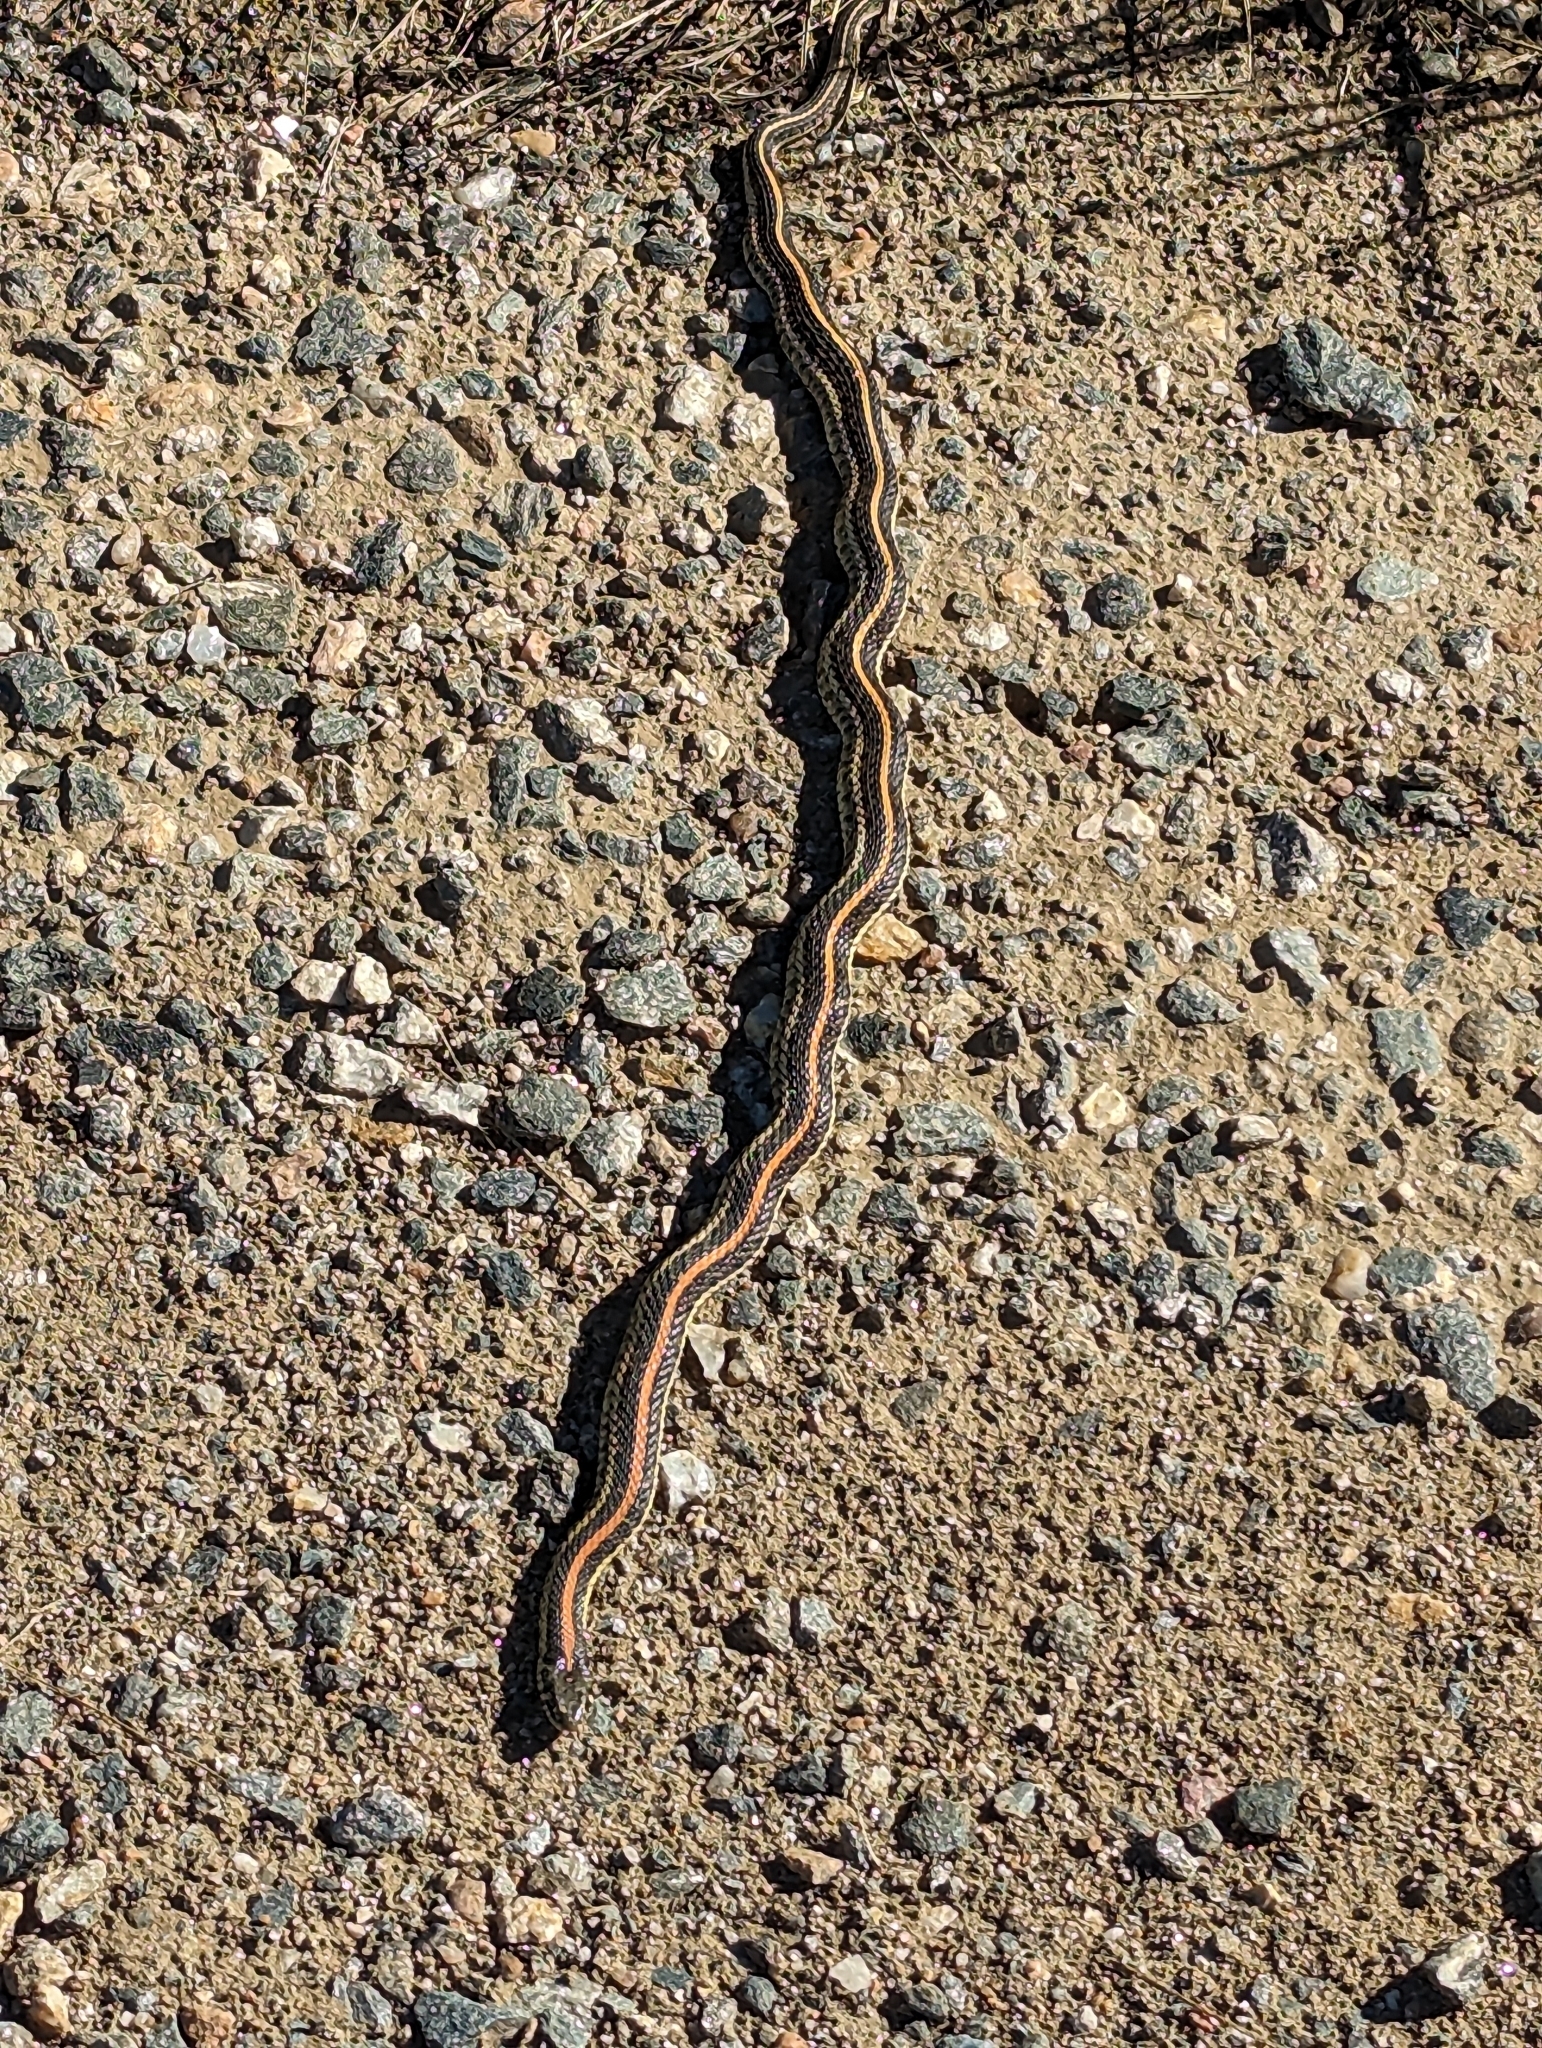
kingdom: Animalia
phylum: Chordata
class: Squamata
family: Colubridae
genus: Thamnophis
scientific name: Thamnophis radix
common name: Plains garter snake
